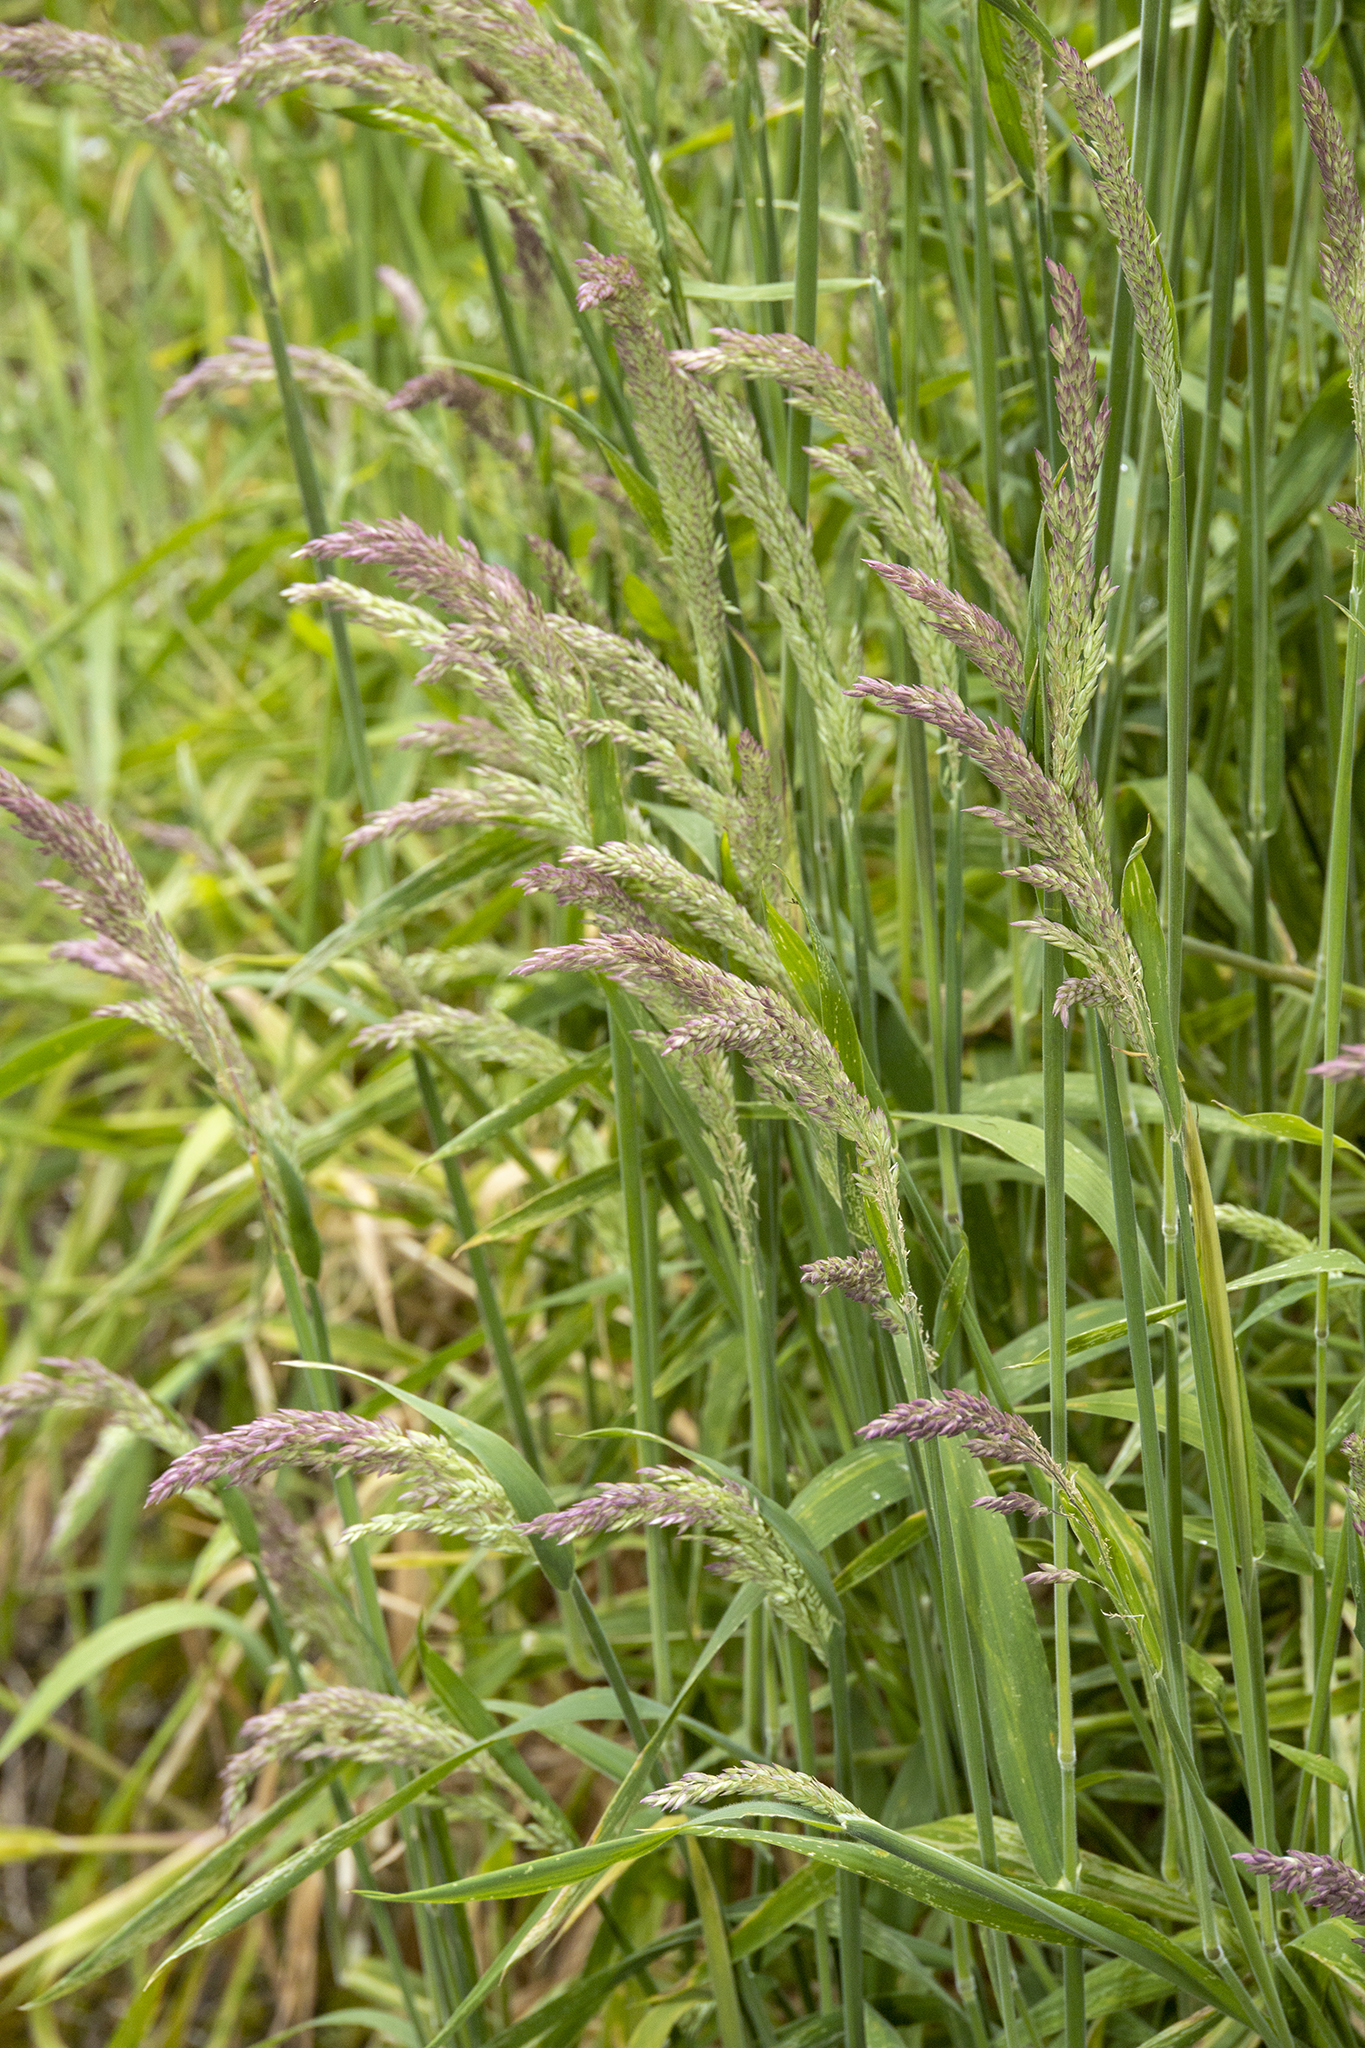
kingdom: Plantae
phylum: Tracheophyta
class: Liliopsida
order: Poales
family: Poaceae
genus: Holcus
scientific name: Holcus lanatus
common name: Yorkshire-fog
